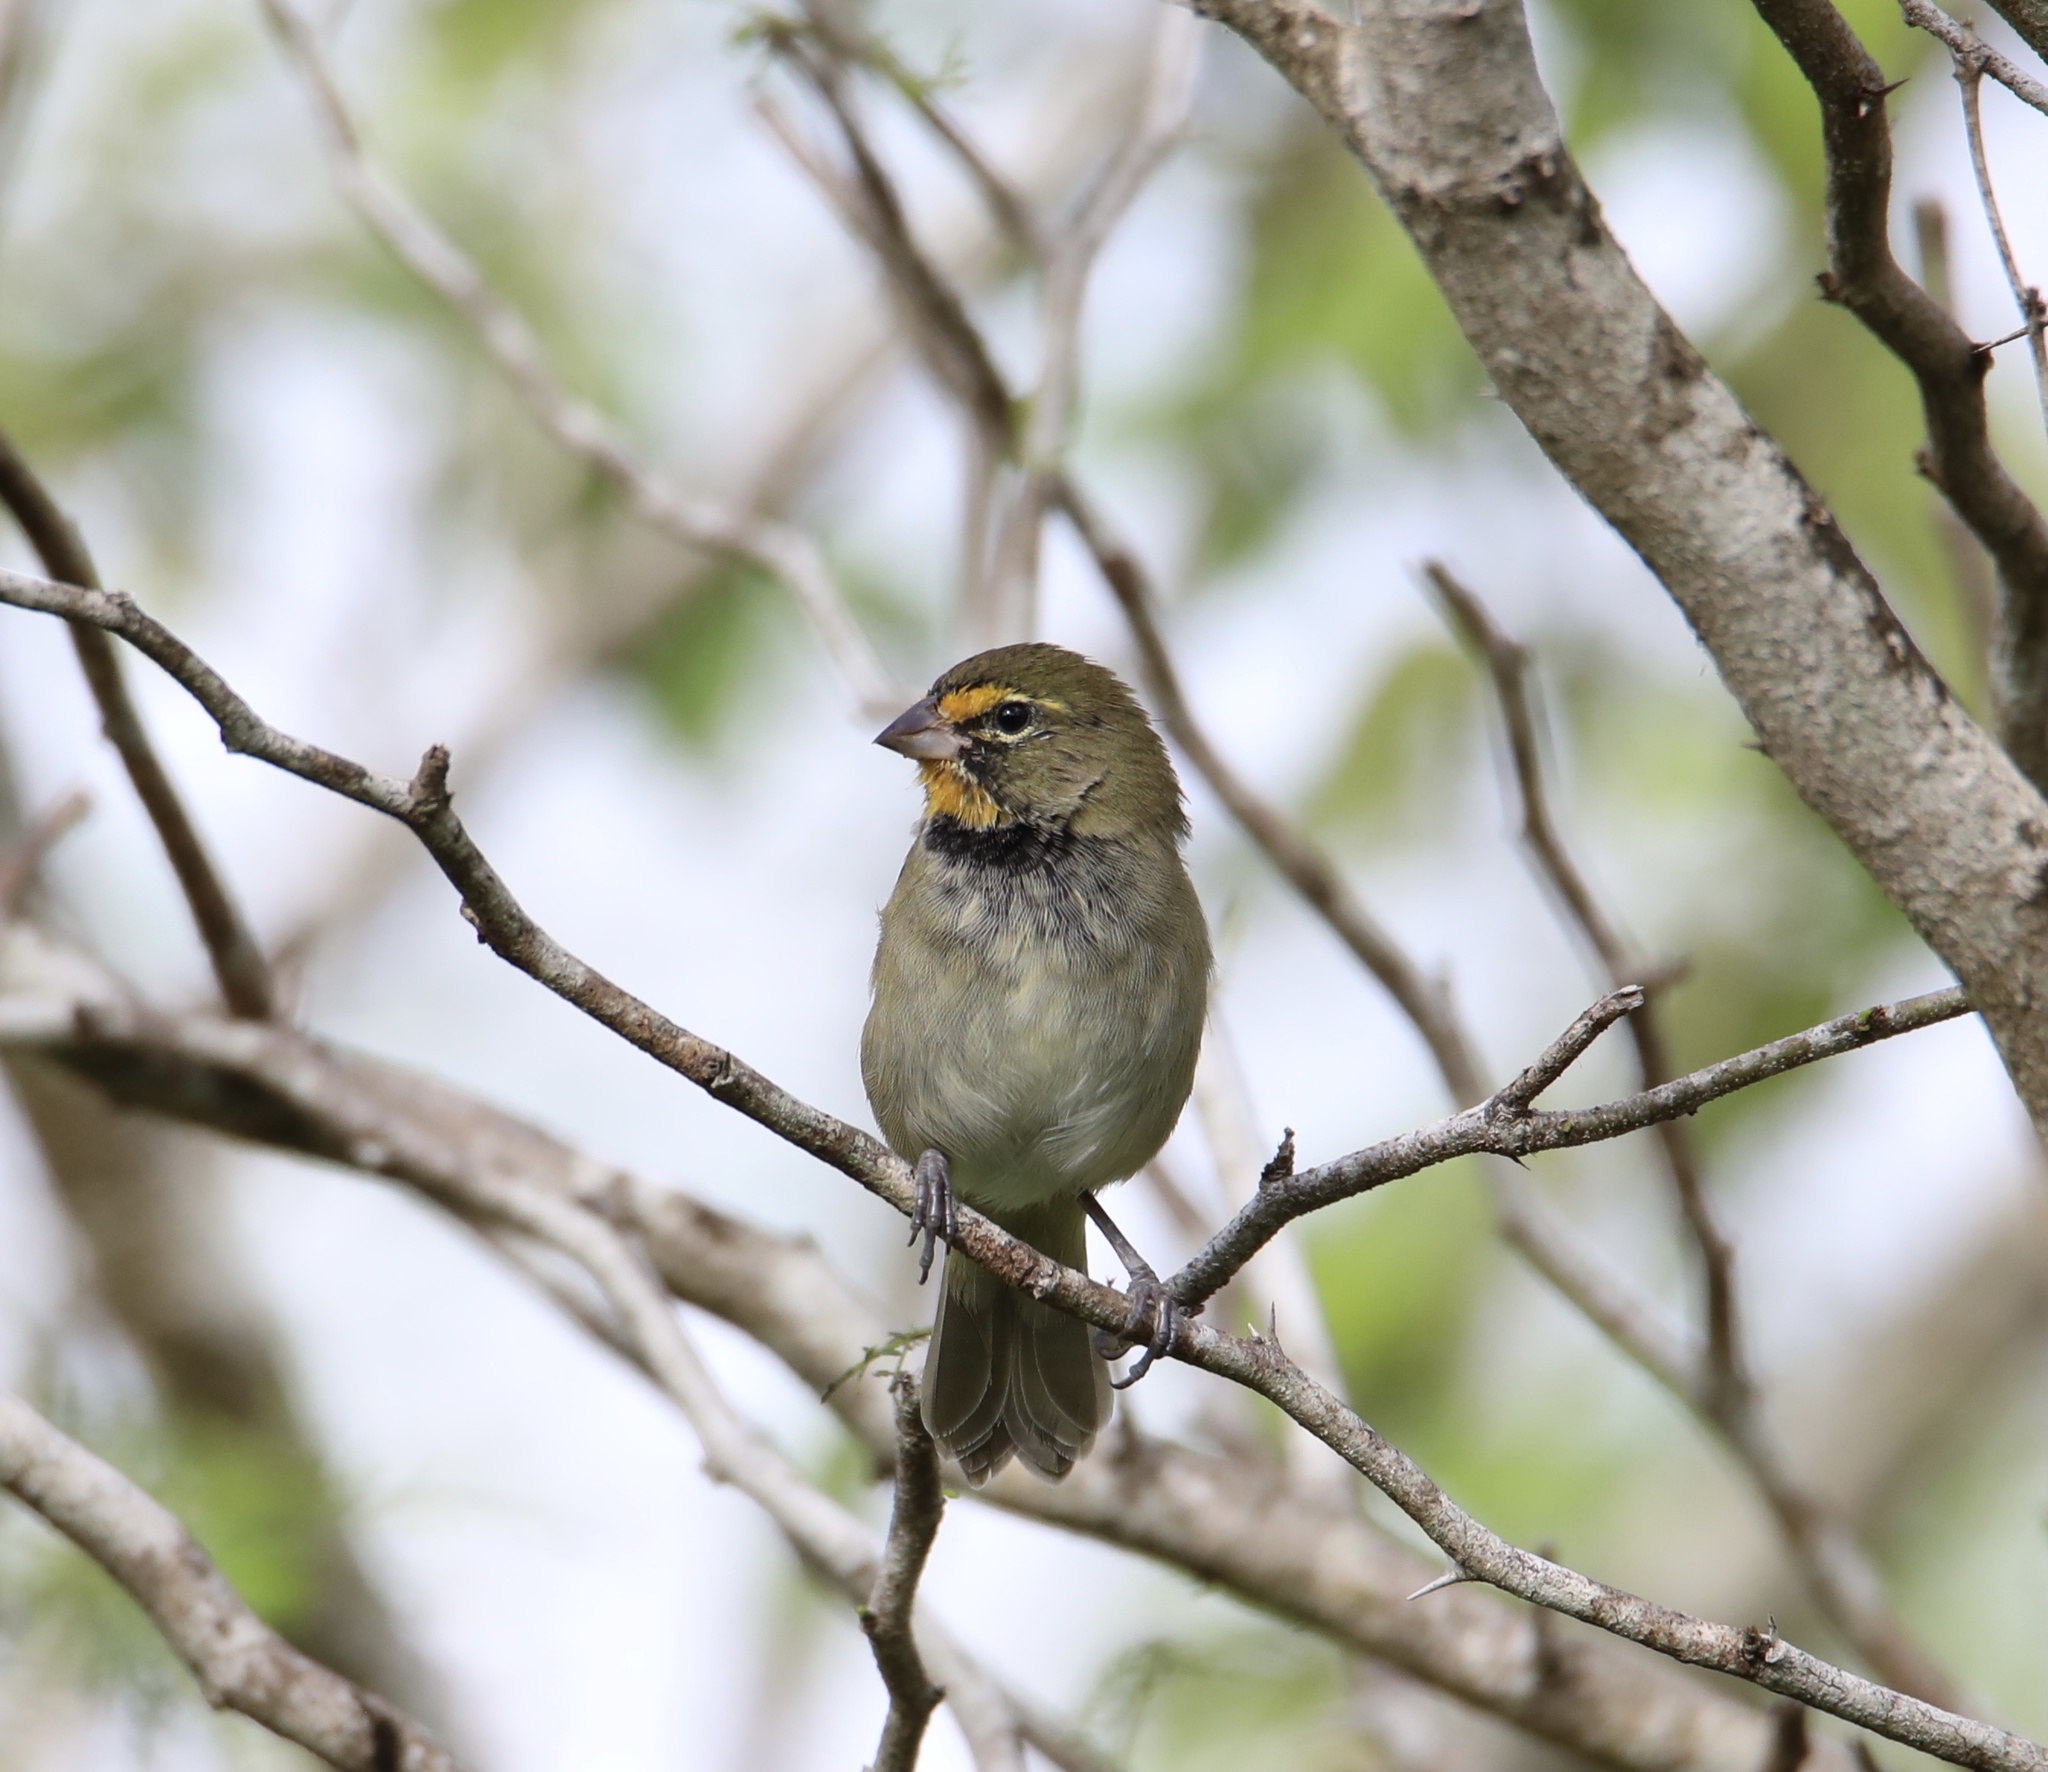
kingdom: Animalia
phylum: Chordata
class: Aves
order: Passeriformes
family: Thraupidae
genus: Tiaris
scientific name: Tiaris olivaceus
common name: Yellow-faced grassquit
